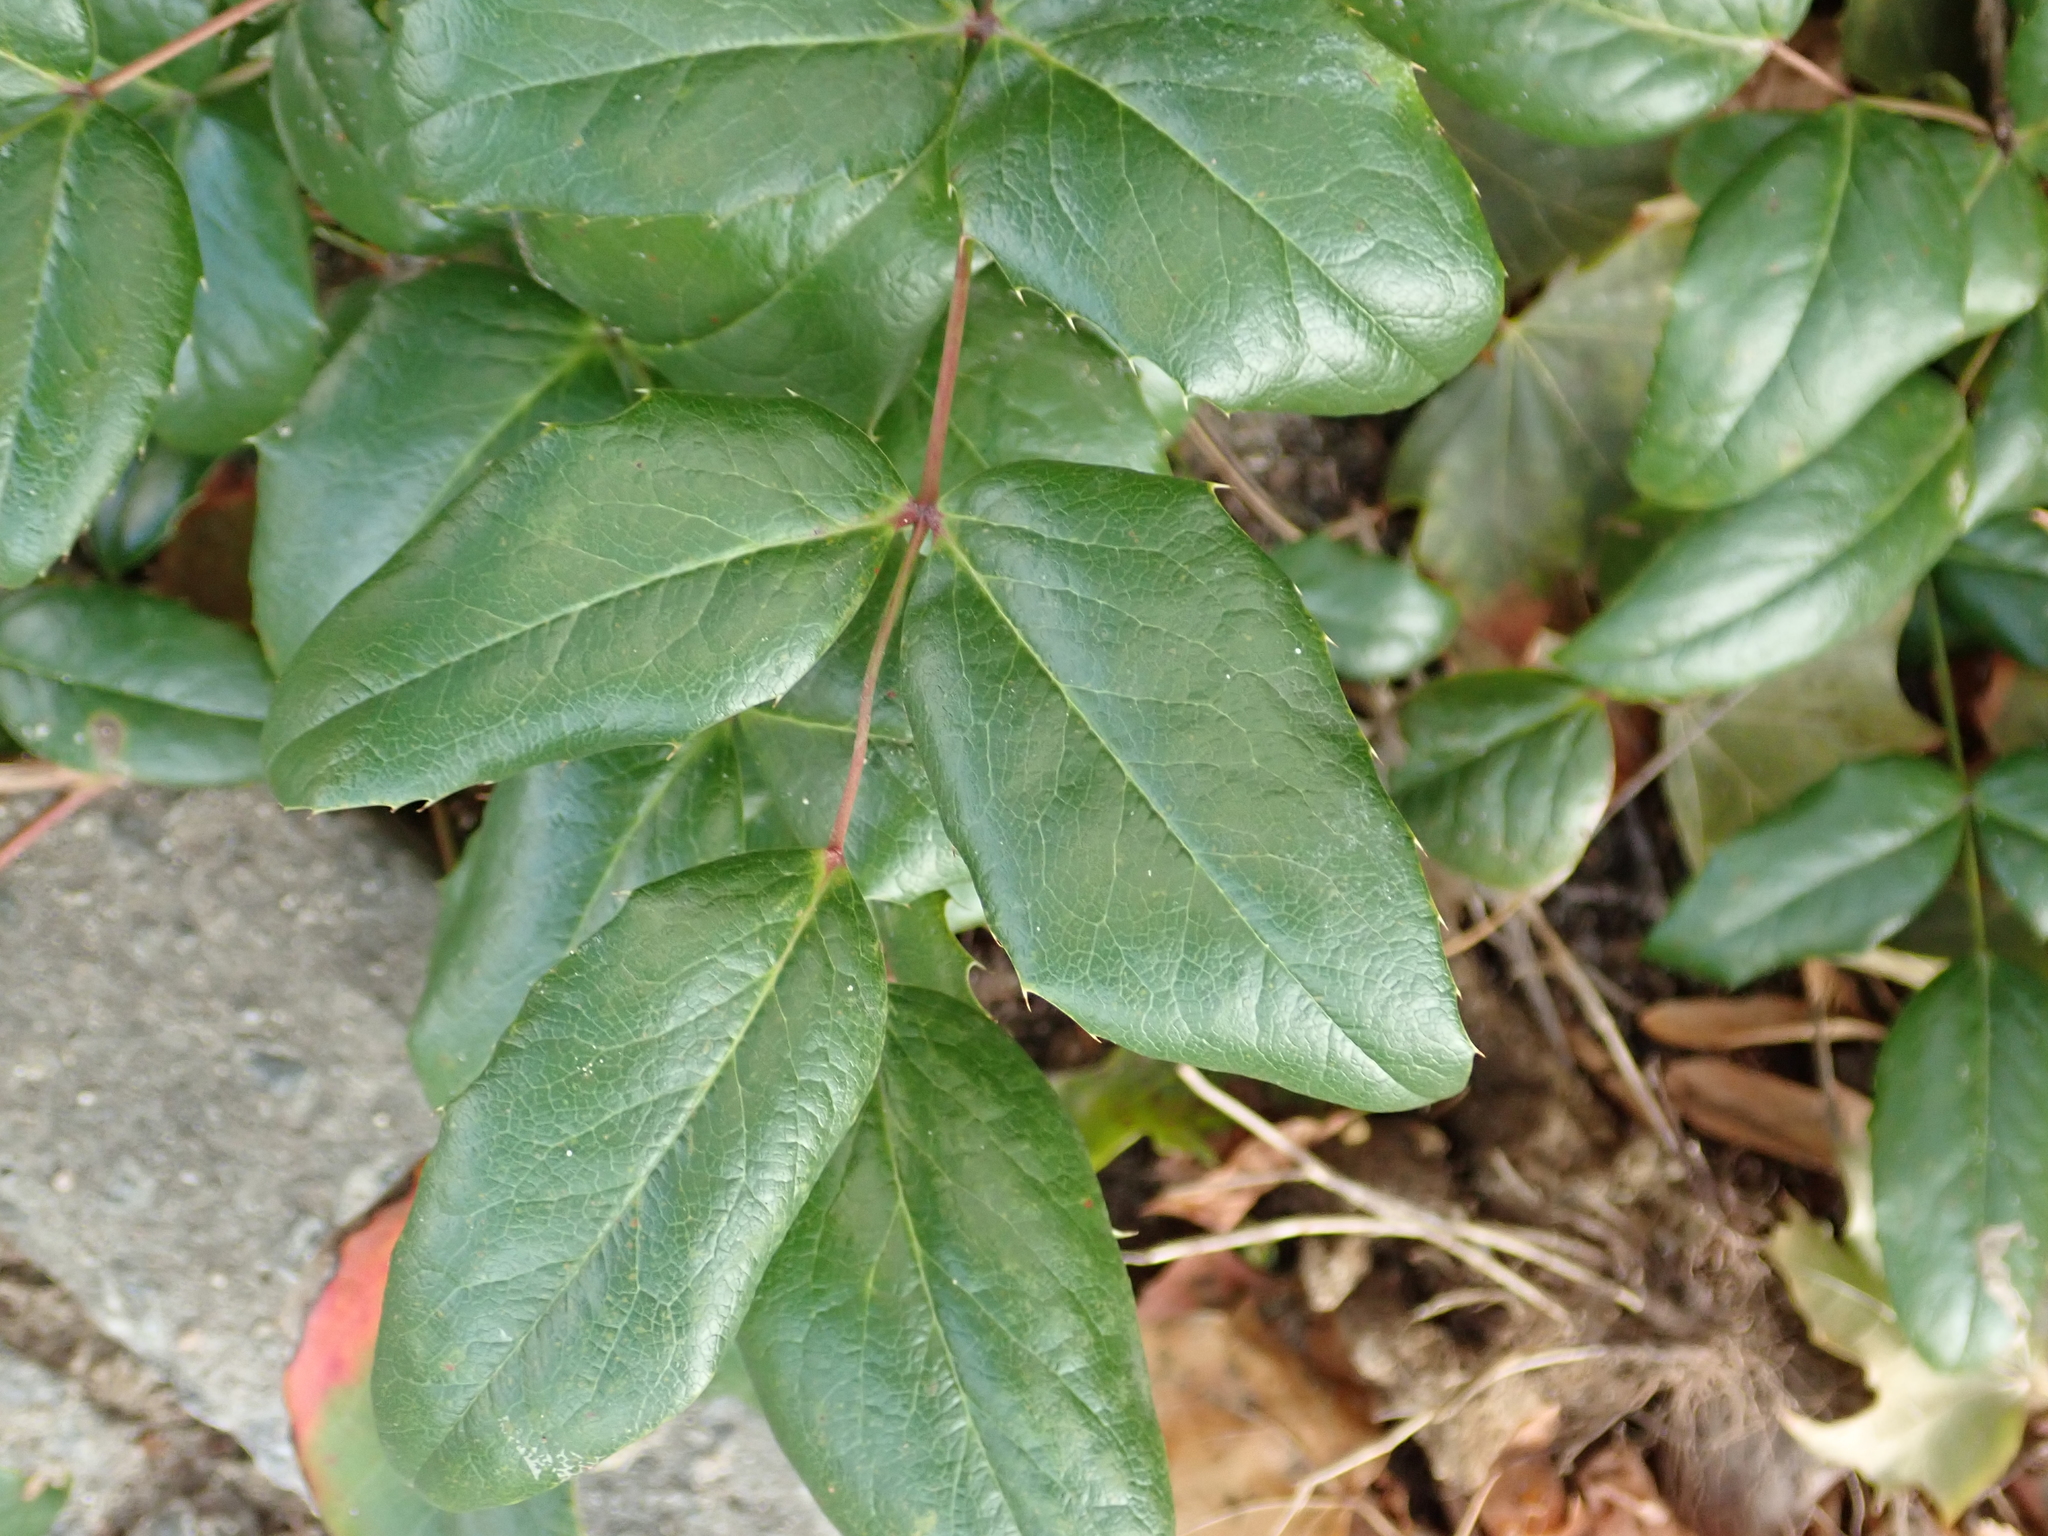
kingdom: Plantae
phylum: Tracheophyta
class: Magnoliopsida
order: Ranunculales
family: Berberidaceae
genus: Mahonia
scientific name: Mahonia aquifolium
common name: Oregon-grape
